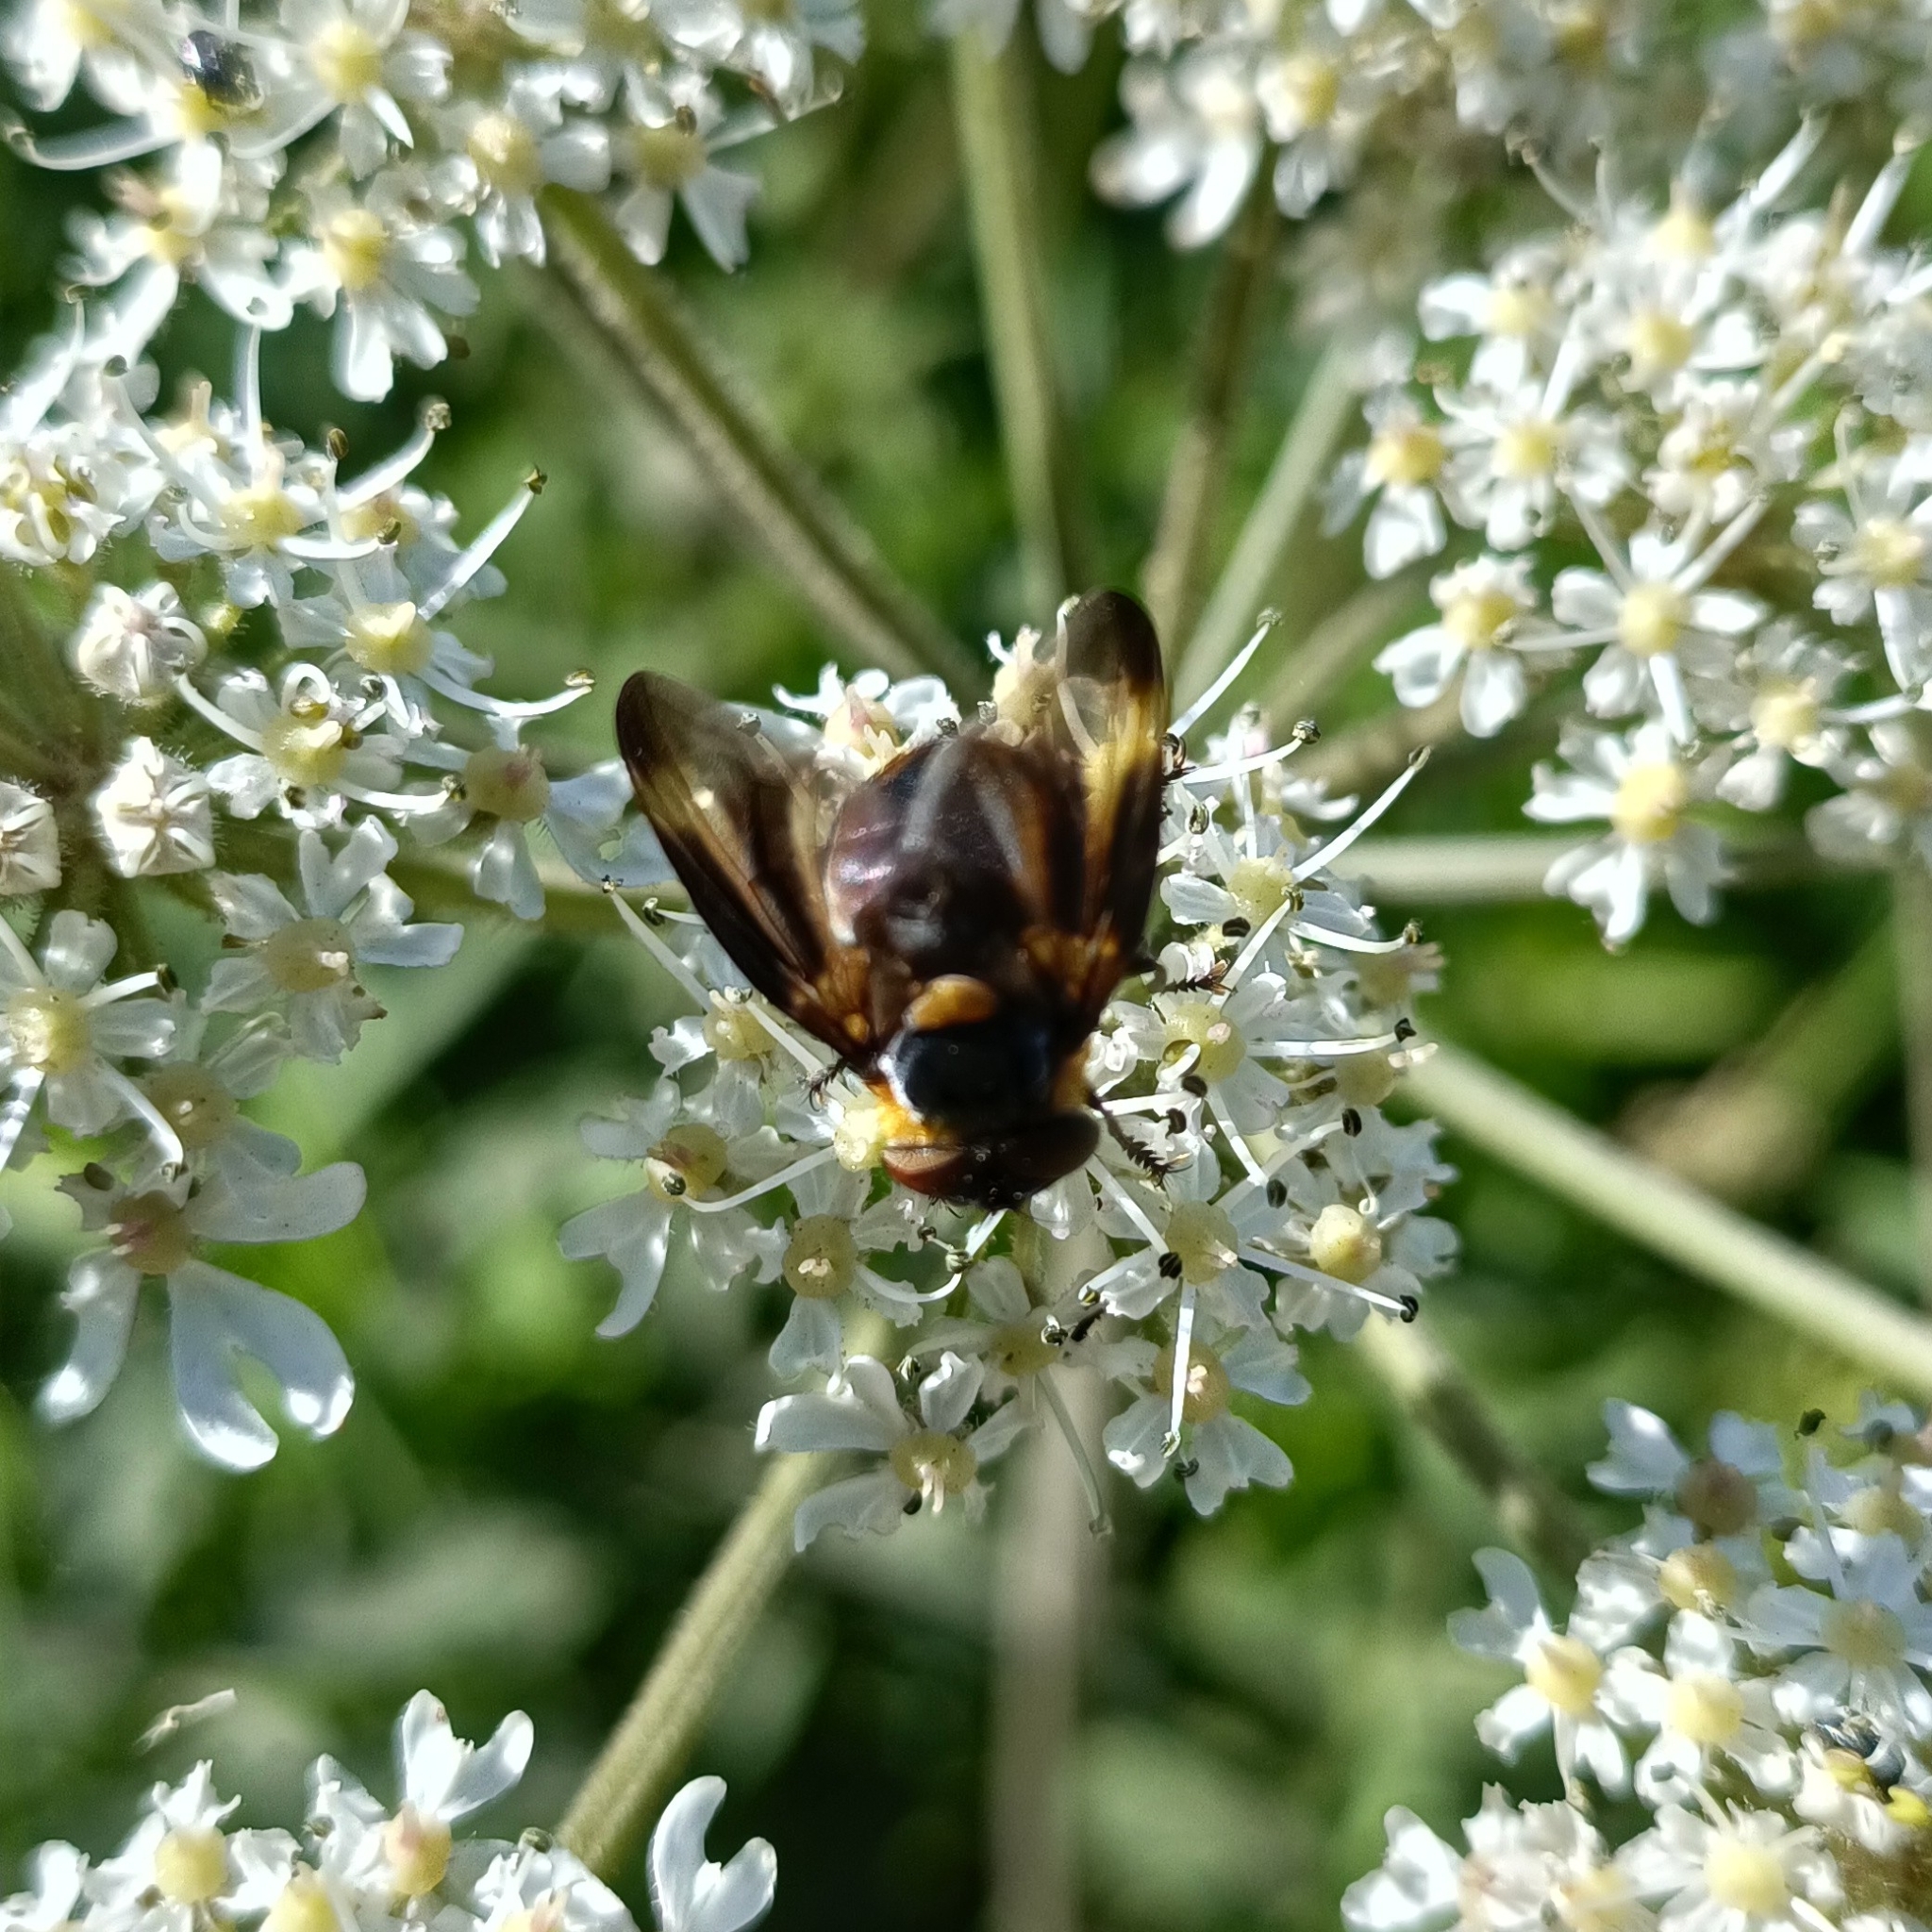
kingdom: Animalia
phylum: Arthropoda
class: Insecta
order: Diptera
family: Tachinidae
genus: Phasia
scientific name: Phasia hemiptera
